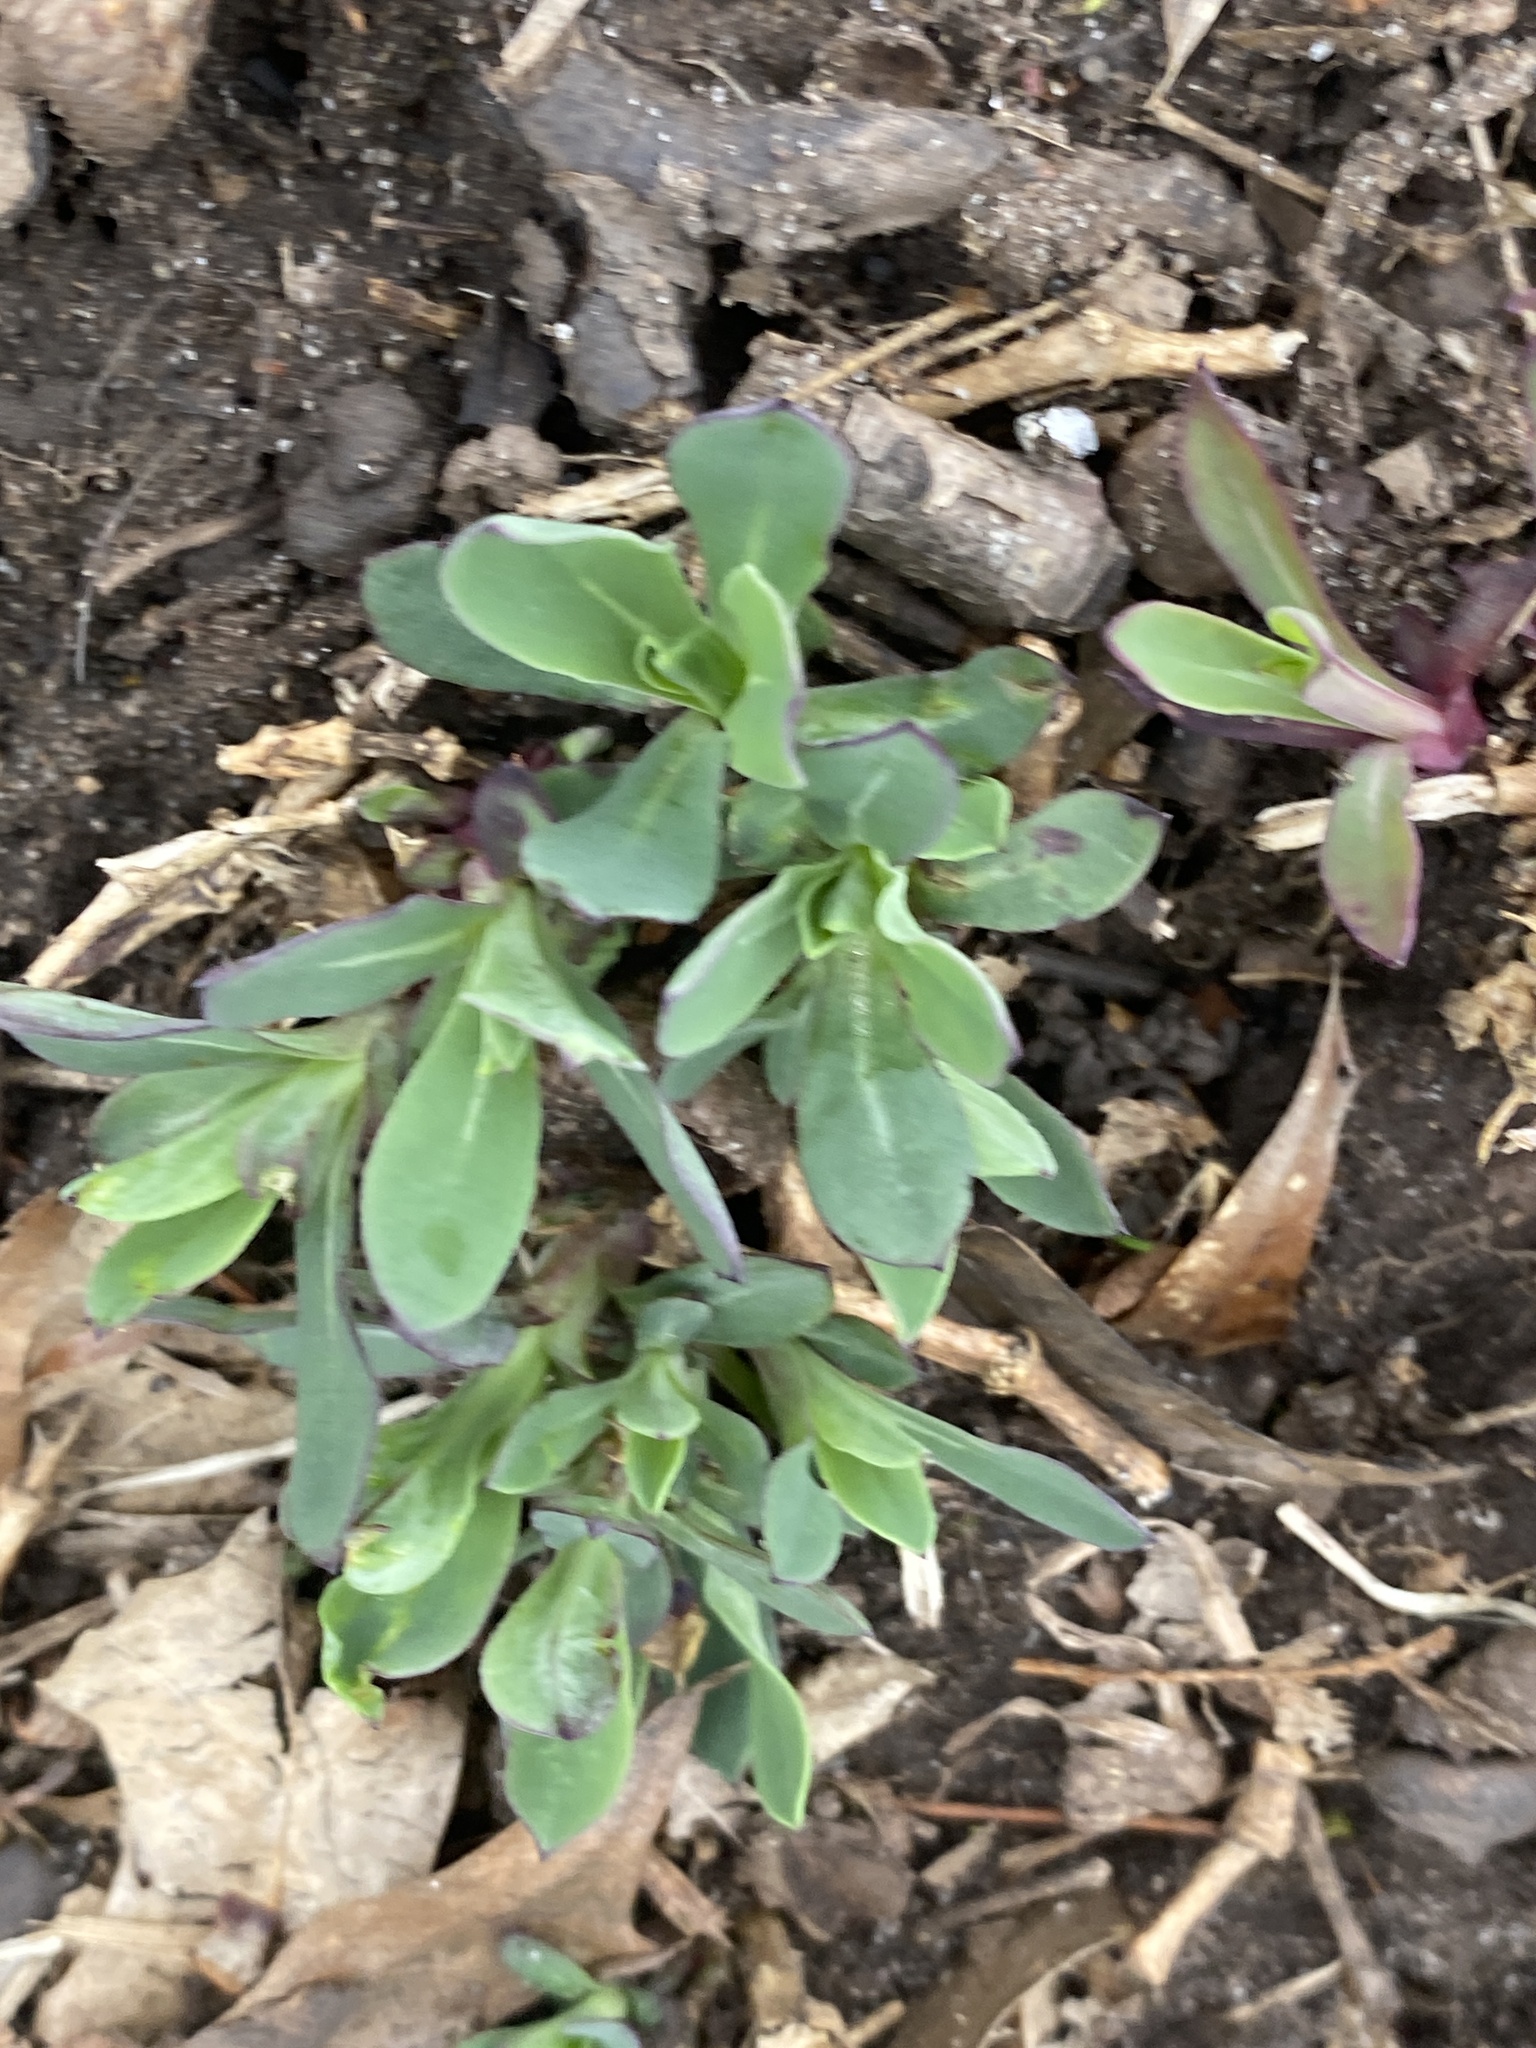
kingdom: Plantae
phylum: Tracheophyta
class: Magnoliopsida
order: Caryophyllales
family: Caryophyllaceae
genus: Silene
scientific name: Silene vulgaris
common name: Bladder campion
